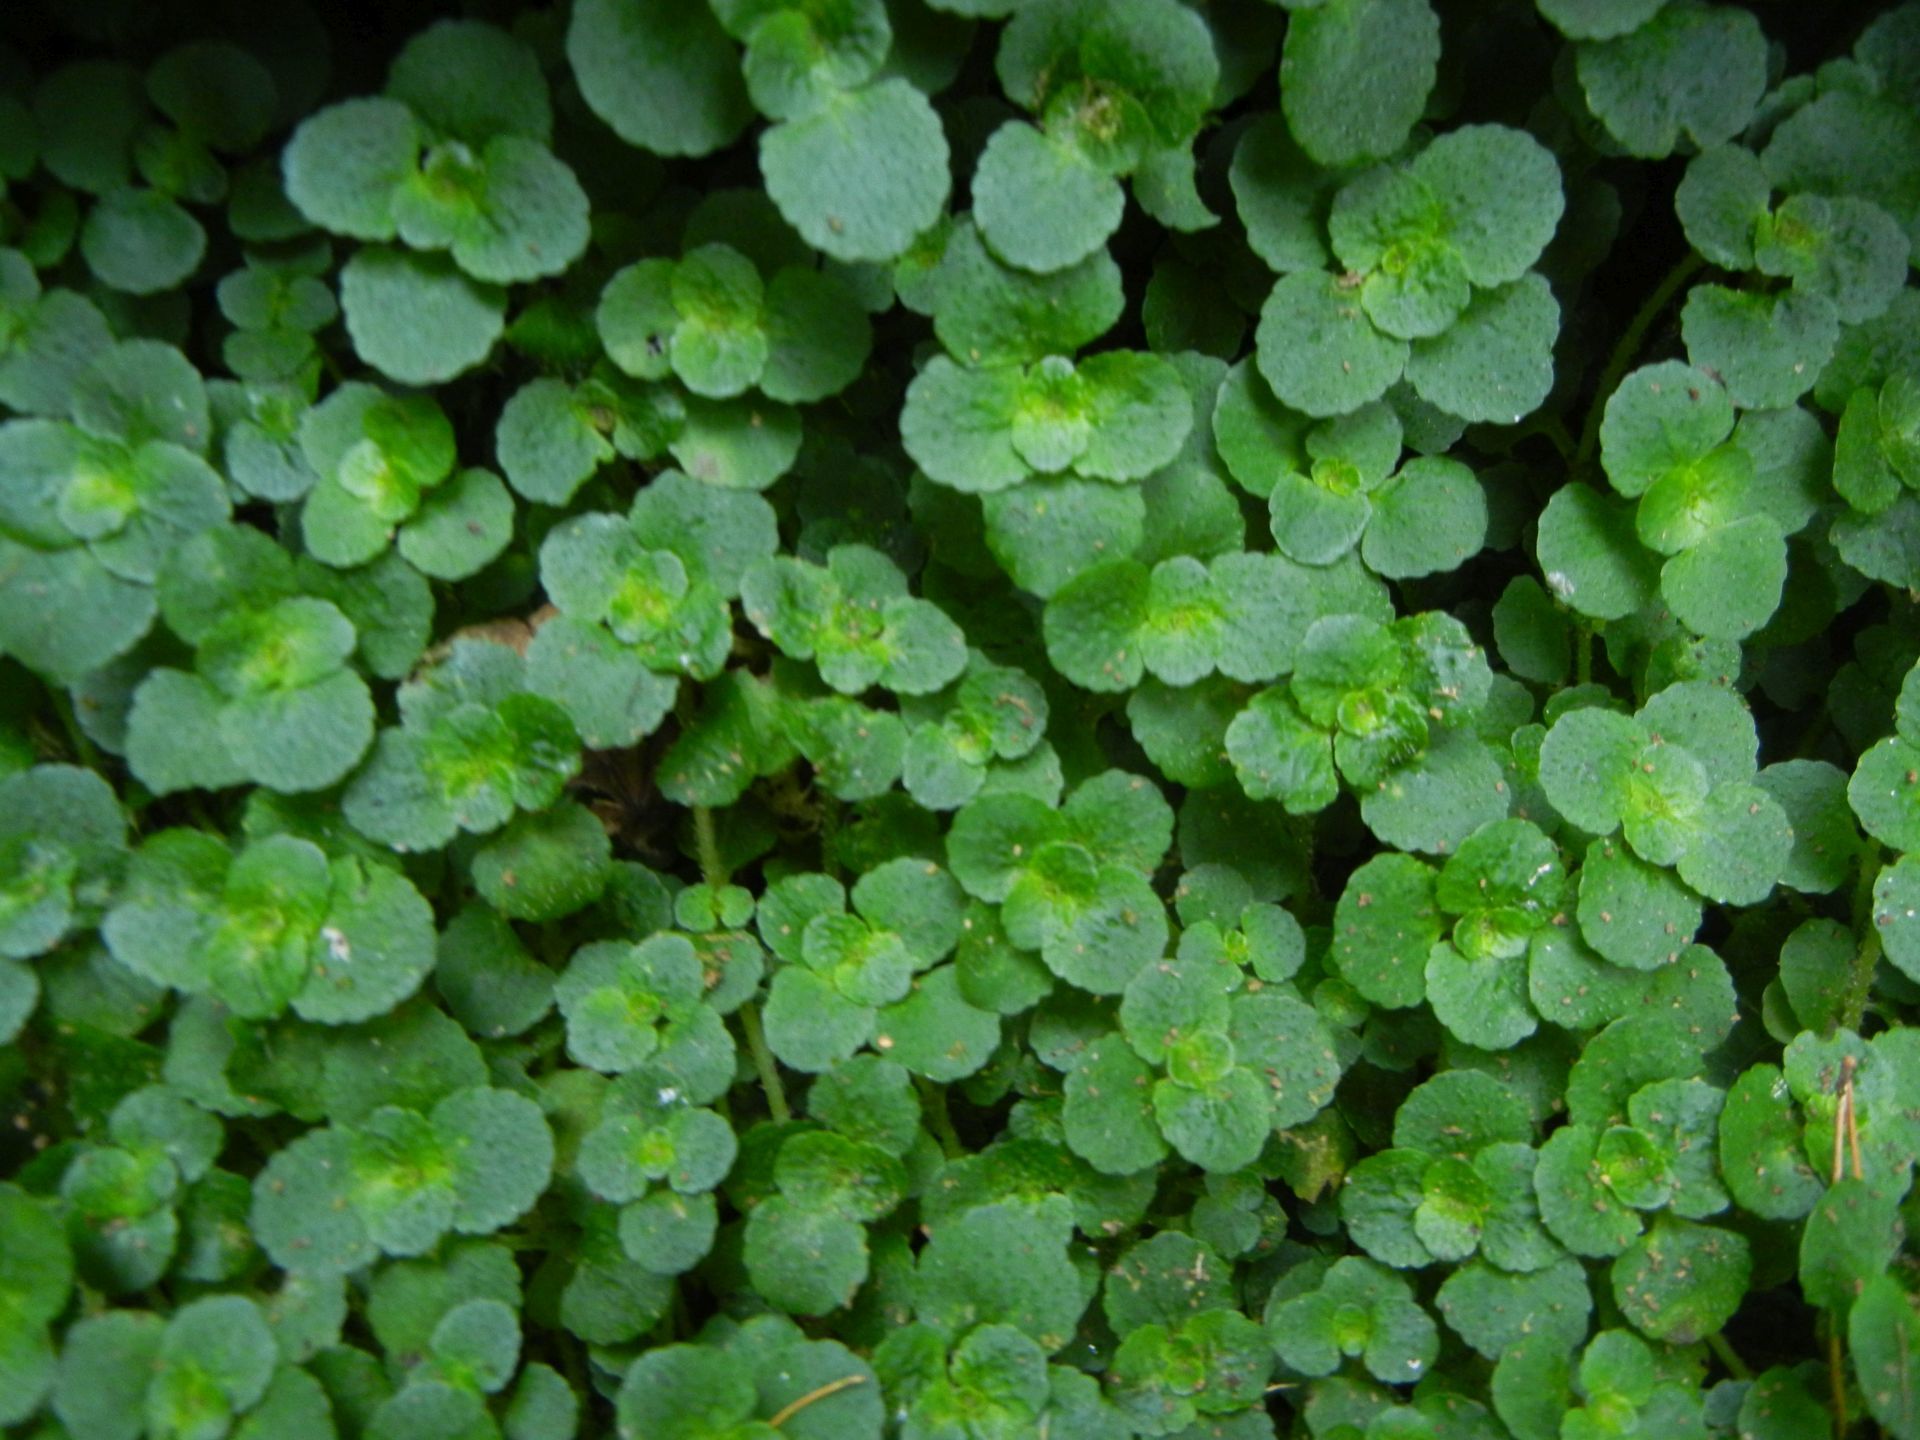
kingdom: Plantae
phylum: Tracheophyta
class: Magnoliopsida
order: Saxifragales
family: Saxifragaceae
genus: Chrysosplenium
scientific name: Chrysosplenium oppositifolium
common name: Opposite-leaved golden-saxifrage
